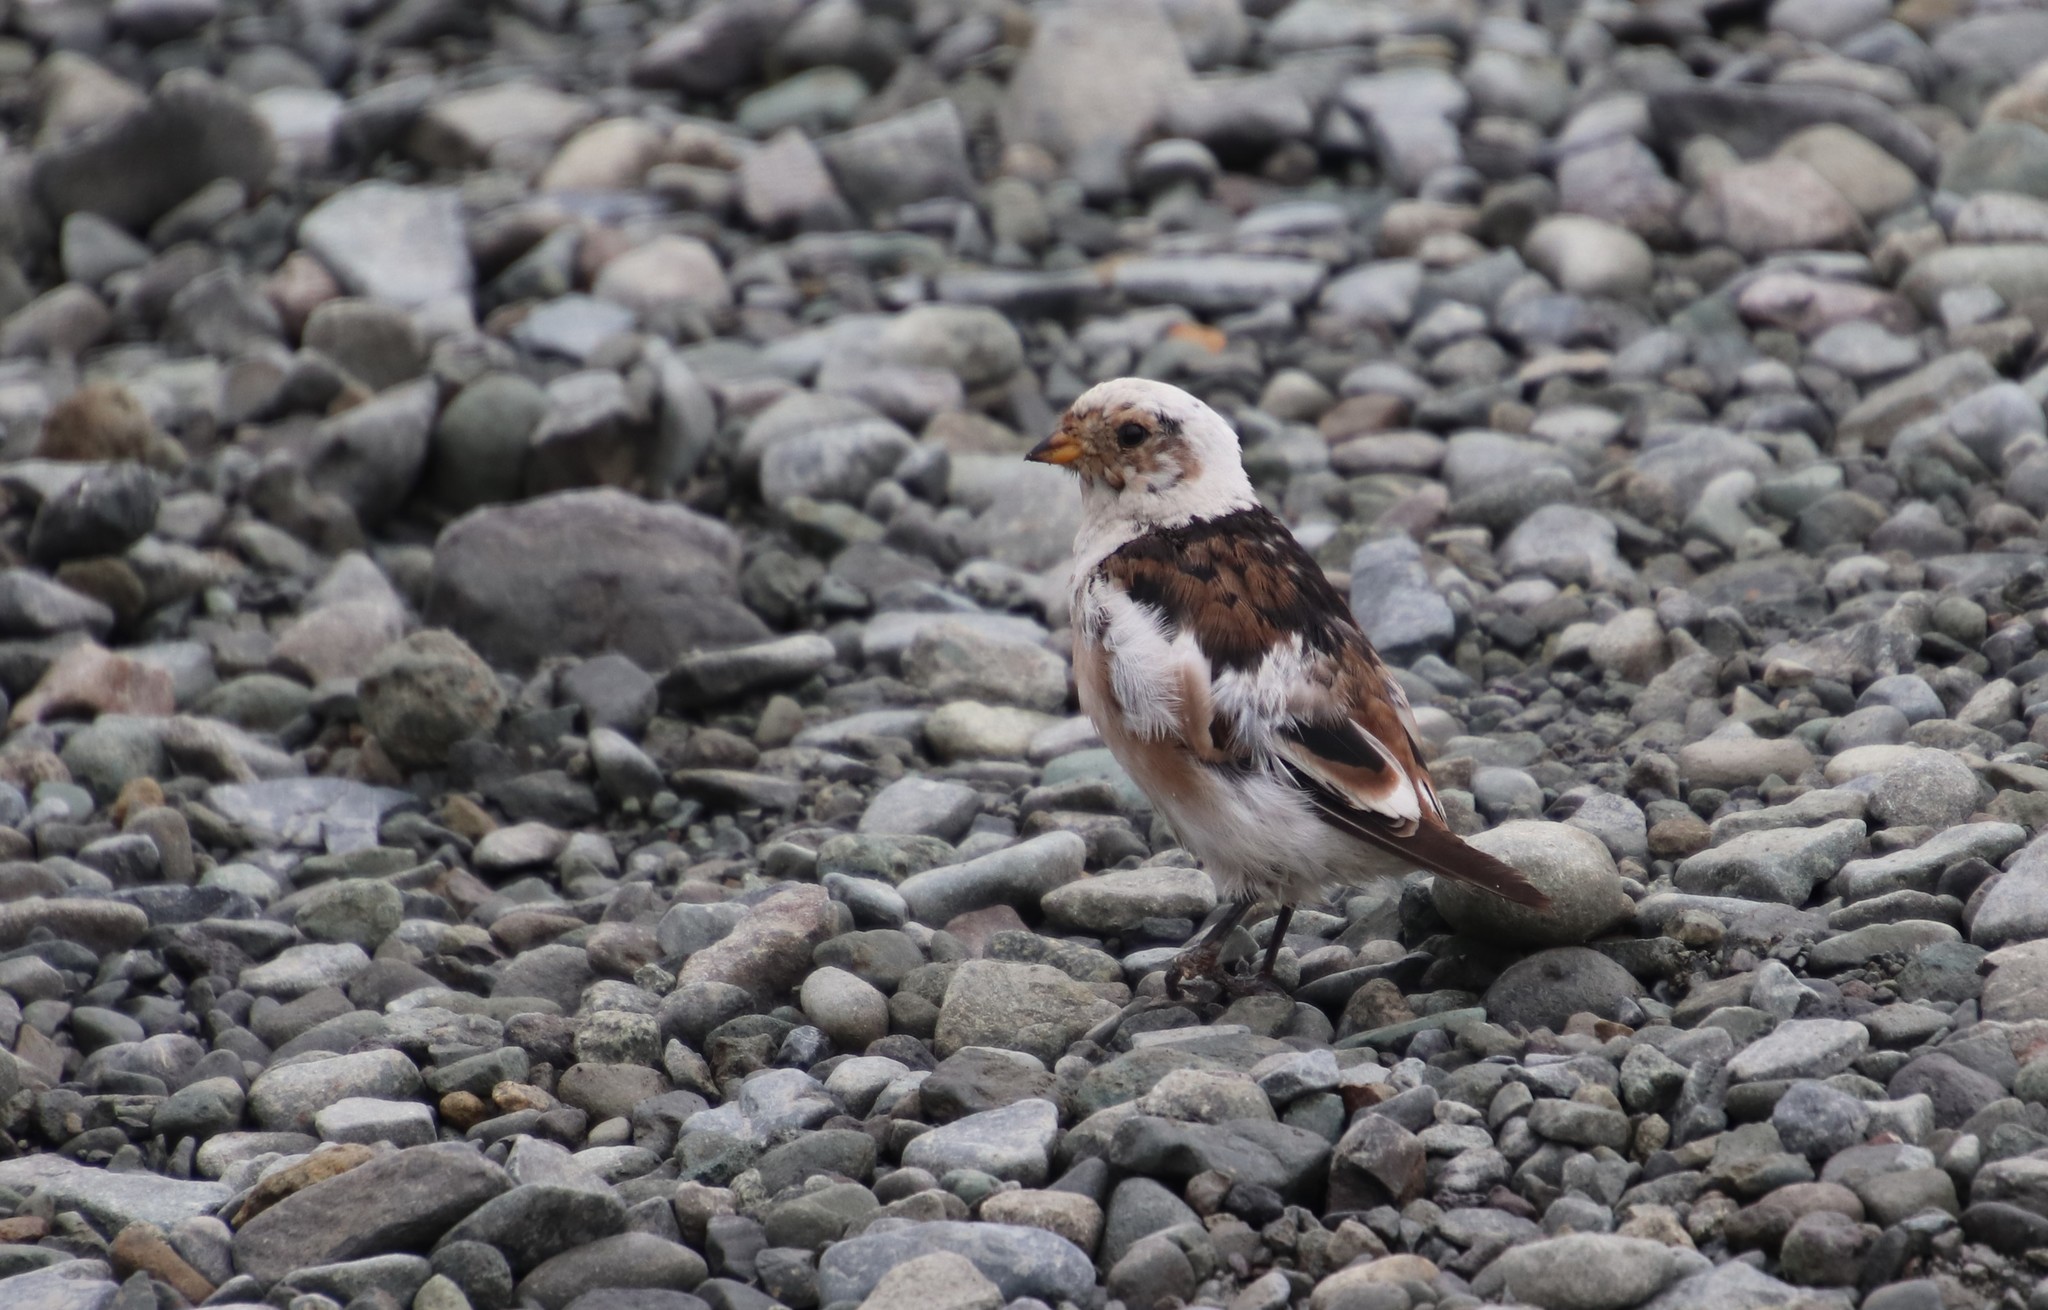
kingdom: Animalia
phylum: Chordata
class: Aves
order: Passeriformes
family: Calcariidae
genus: Plectrophenax
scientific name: Plectrophenax nivalis
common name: Snow bunting
